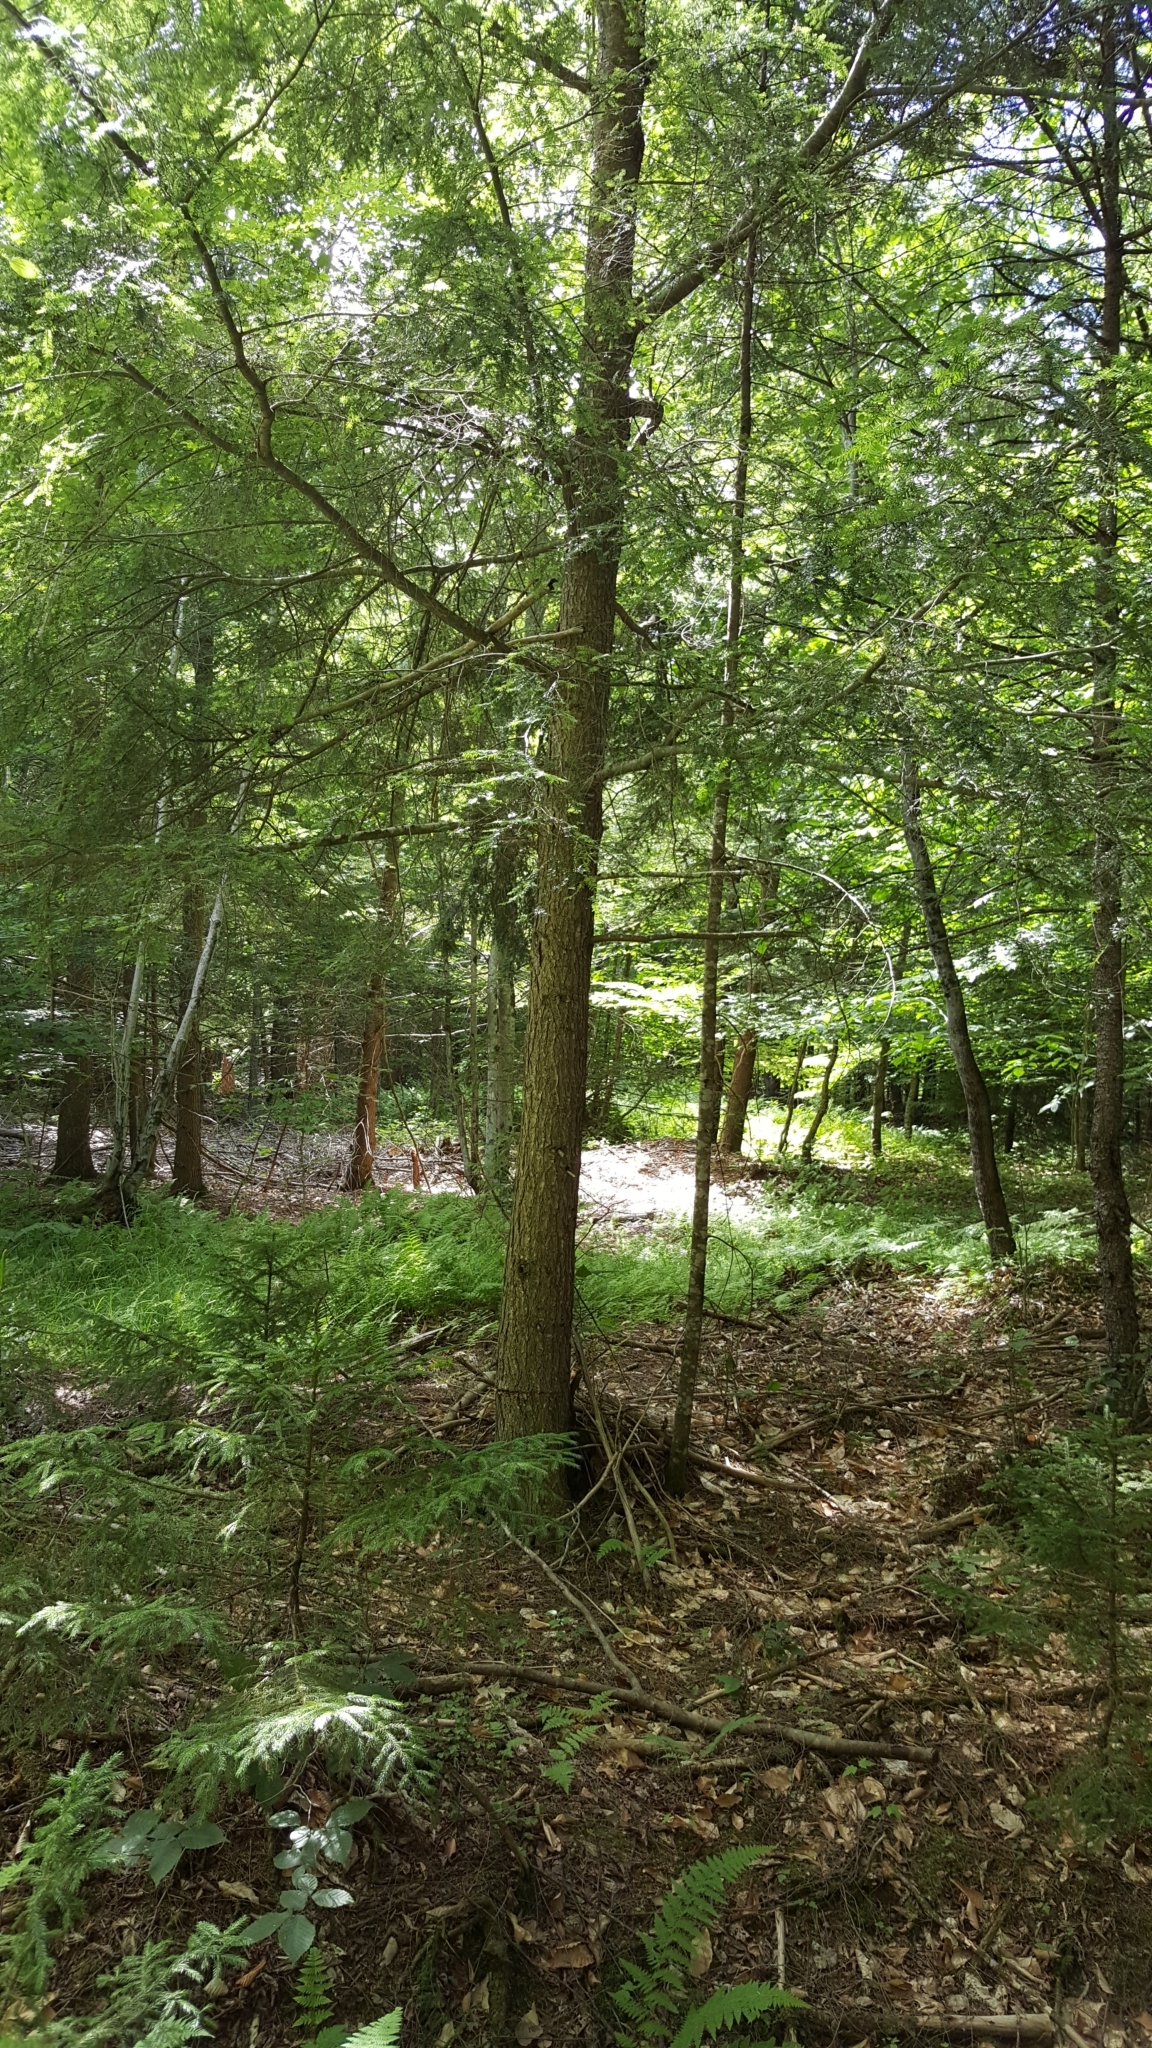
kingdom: Plantae
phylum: Tracheophyta
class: Pinopsida
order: Pinales
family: Pinaceae
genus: Tsuga
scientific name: Tsuga canadensis
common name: Eastern hemlock
